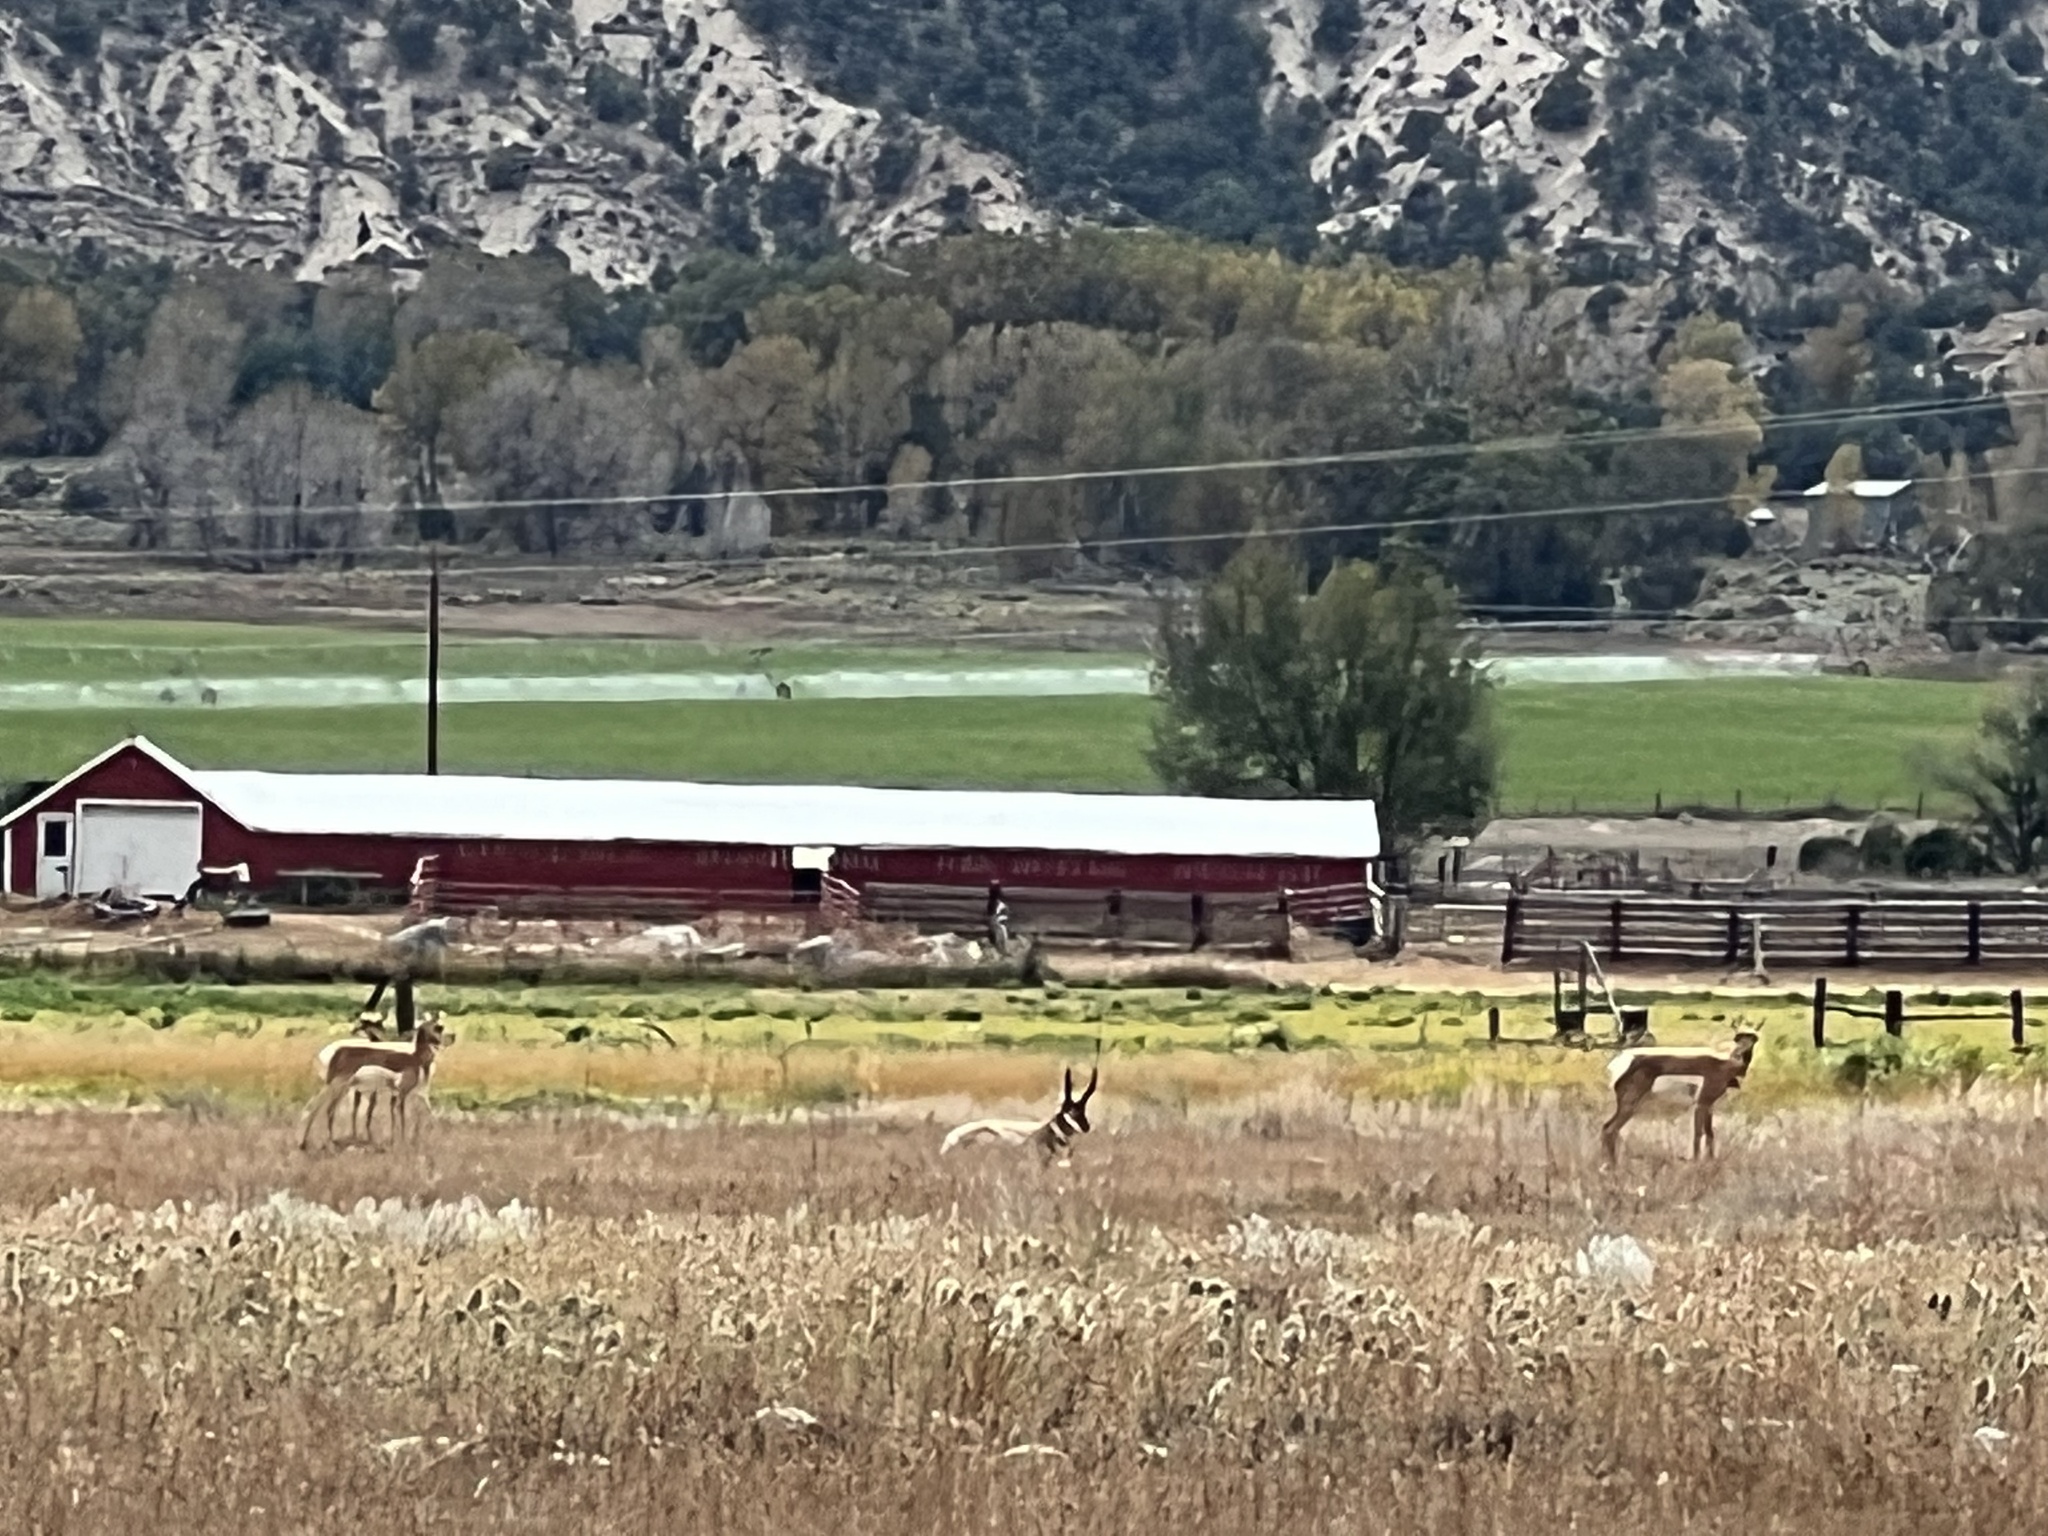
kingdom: Animalia
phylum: Chordata
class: Mammalia
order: Artiodactyla
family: Antilocapridae
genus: Antilocapra
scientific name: Antilocapra americana
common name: Pronghorn
